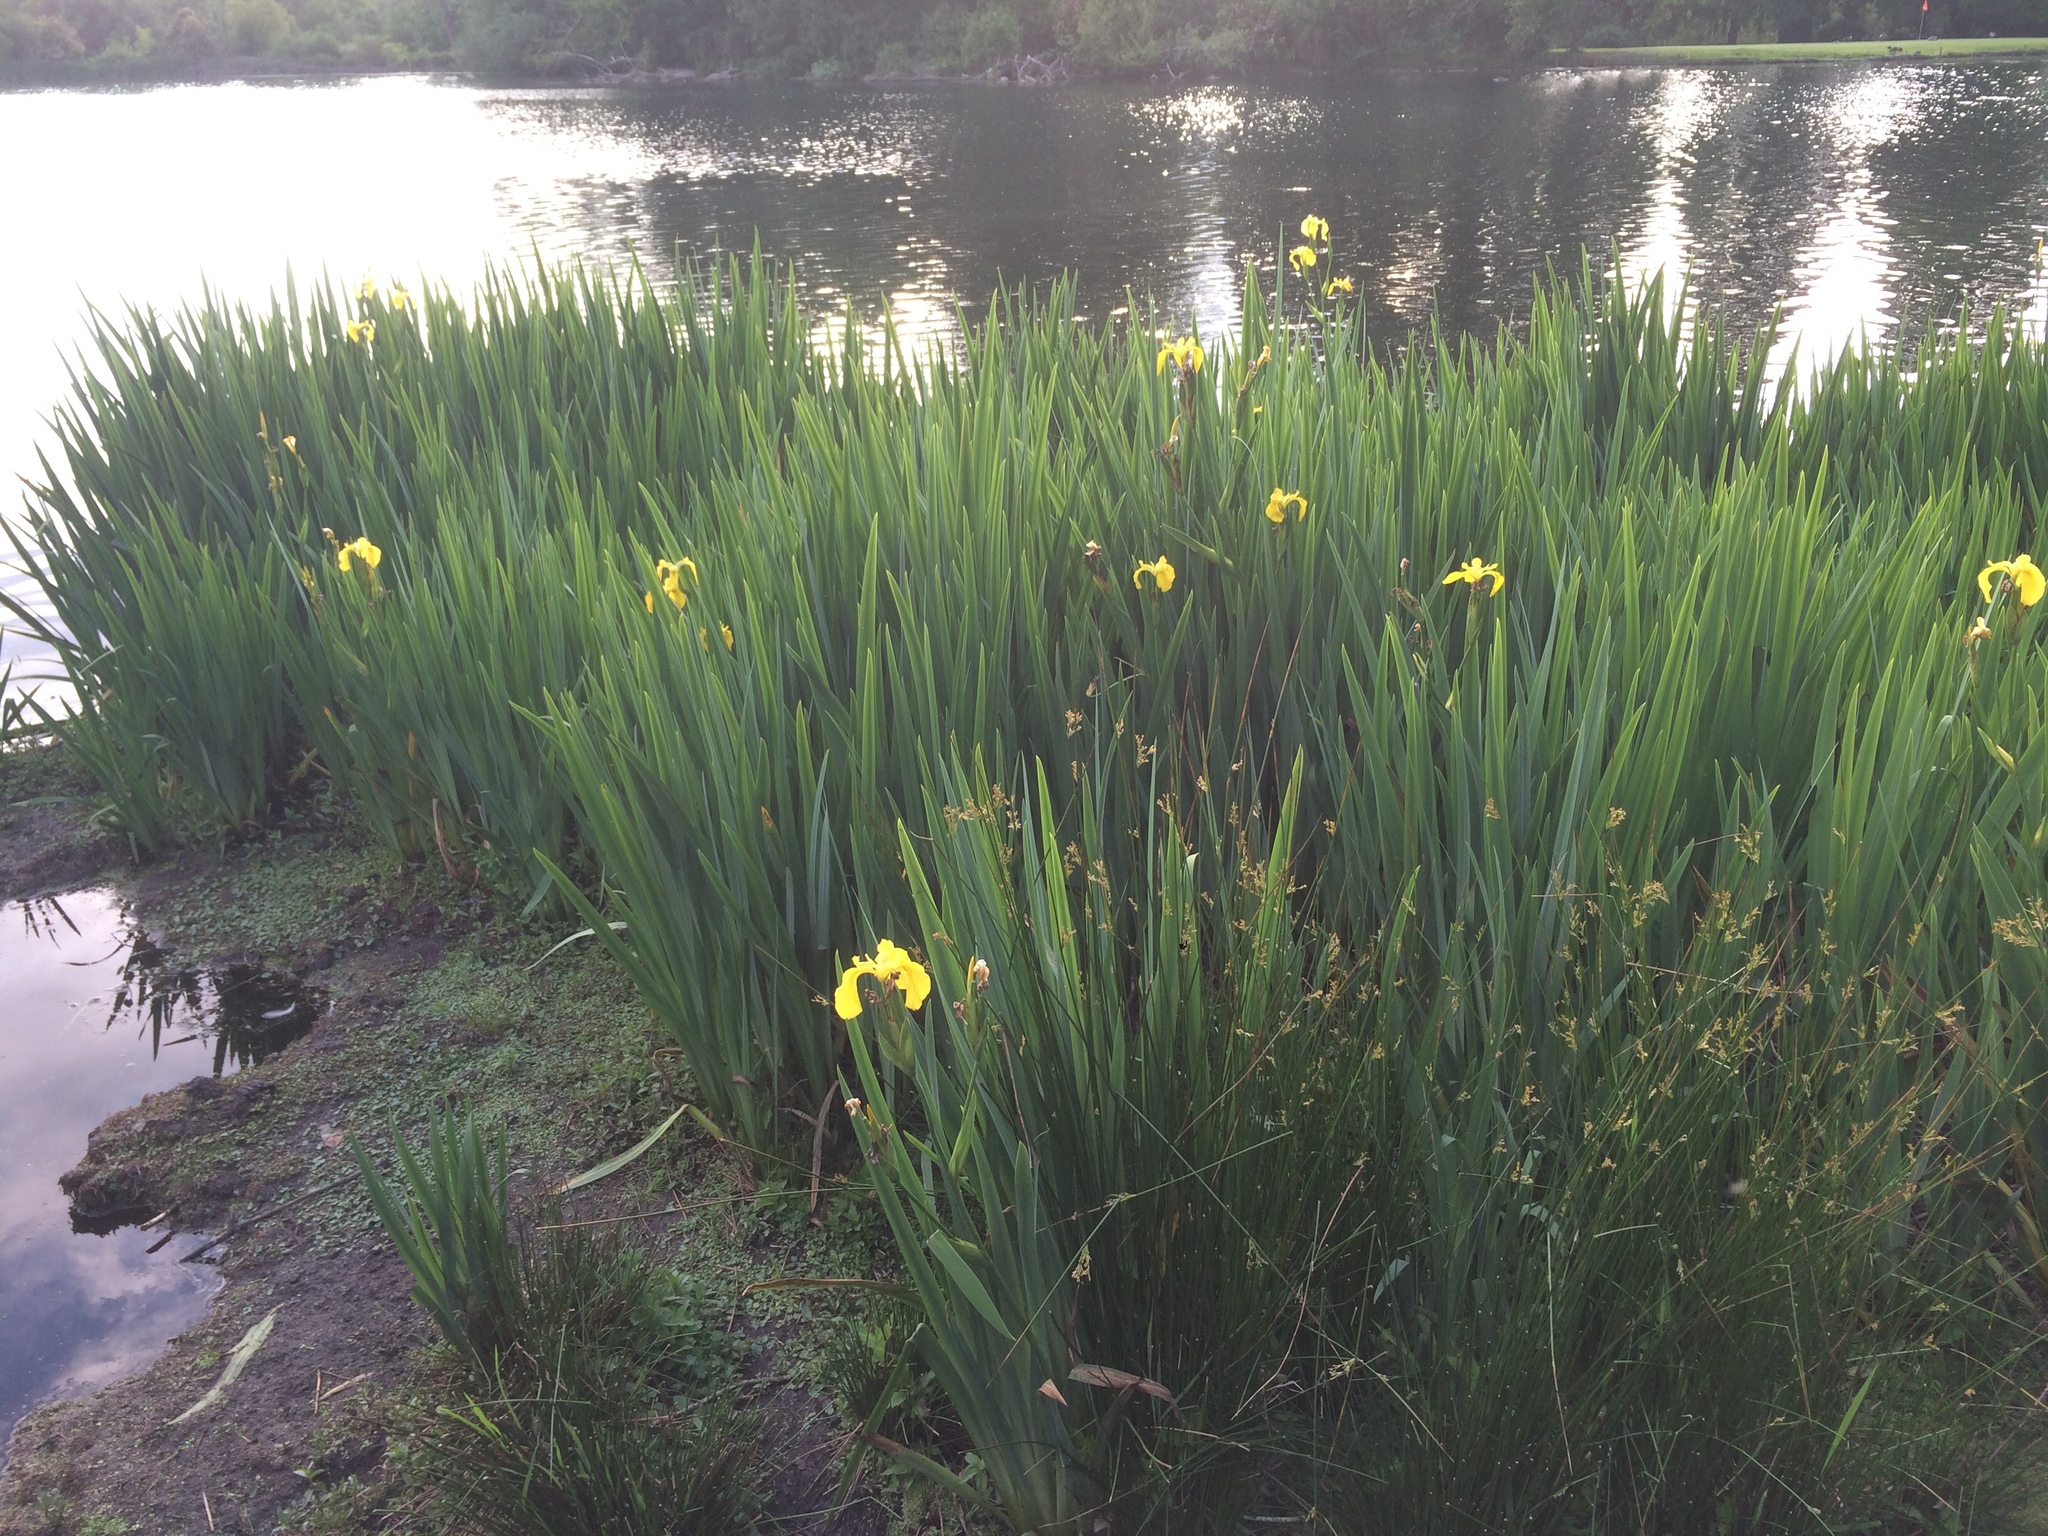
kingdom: Plantae
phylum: Tracheophyta
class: Liliopsida
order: Asparagales
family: Iridaceae
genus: Iris
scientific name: Iris pseudacorus
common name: Yellow flag
